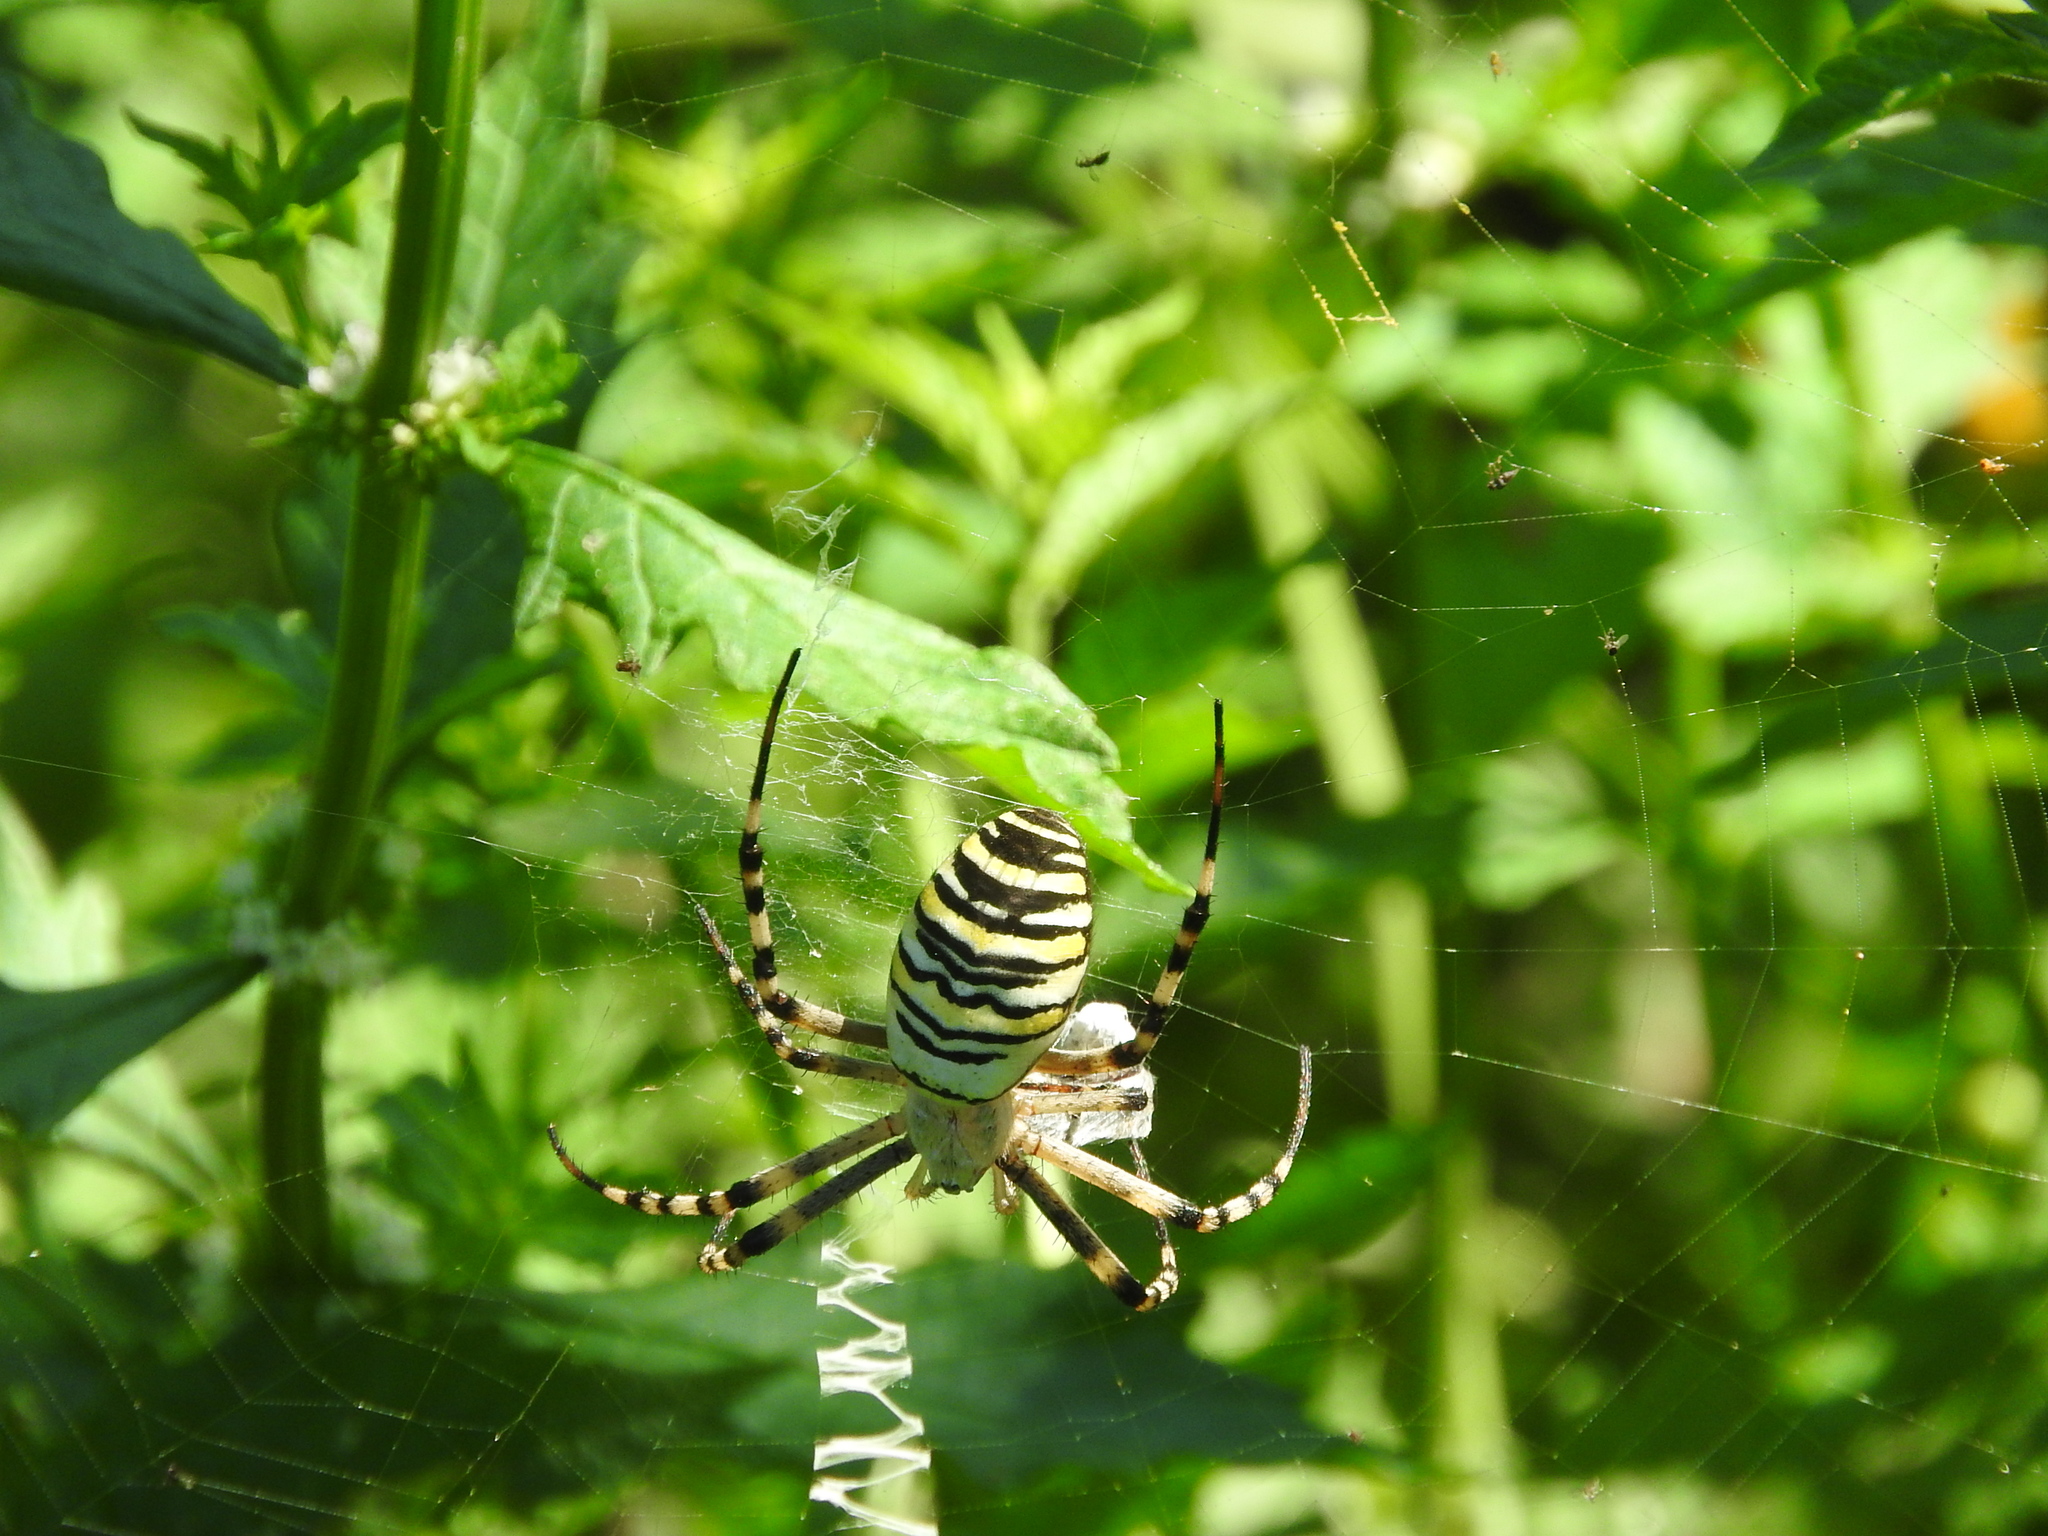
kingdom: Animalia
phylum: Arthropoda
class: Arachnida
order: Araneae
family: Araneidae
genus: Argiope
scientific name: Argiope bruennichi
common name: Wasp spider
